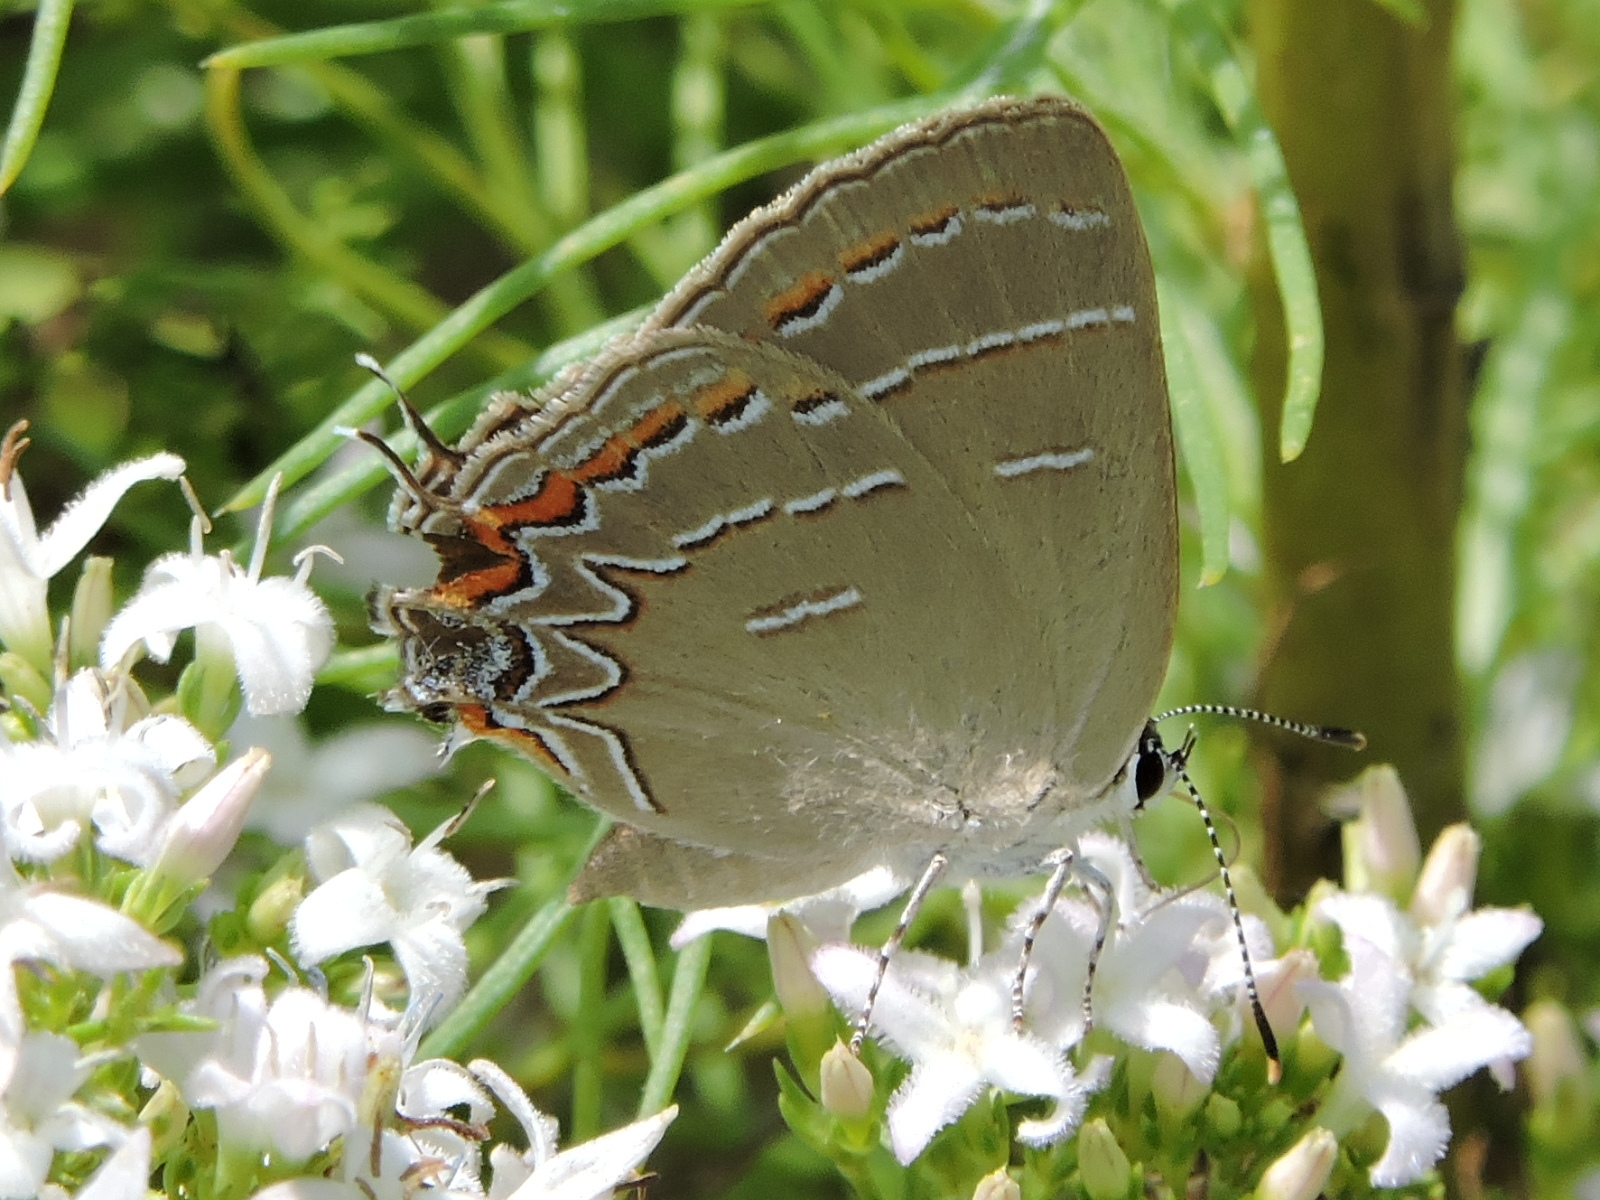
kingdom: Animalia
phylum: Arthropoda
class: Insecta
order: Lepidoptera
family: Lycaenidae
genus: Phaeostrymon
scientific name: Phaeostrymon alcestis
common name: Soapberry hairstreak
